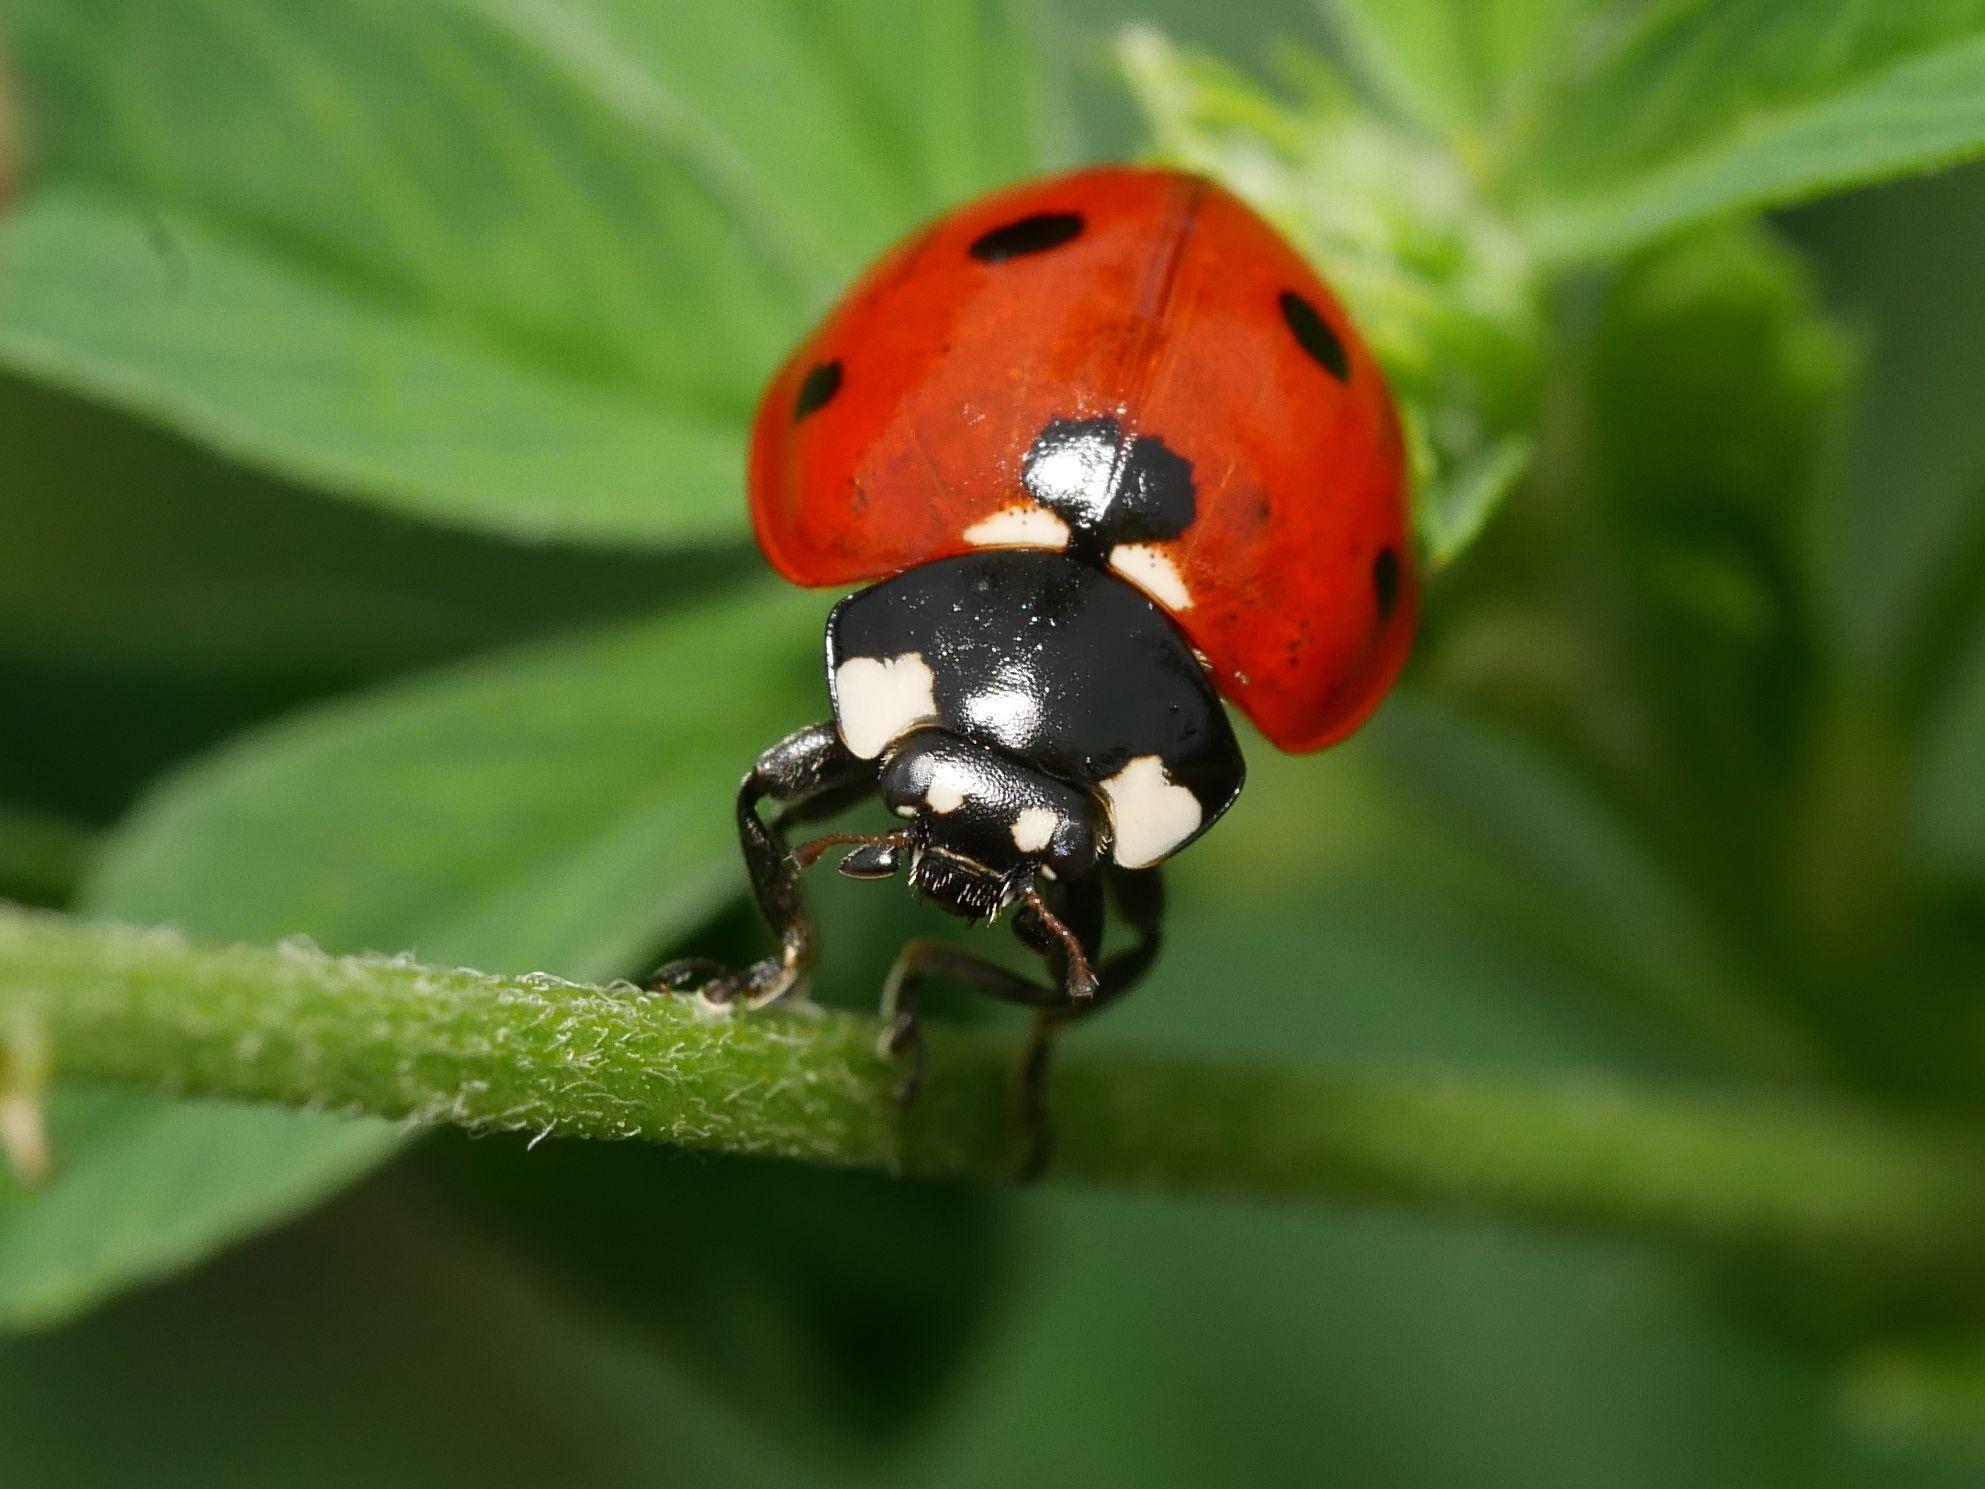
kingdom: Animalia
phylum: Arthropoda
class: Insecta
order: Coleoptera
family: Coccinellidae
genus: Coccinella
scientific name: Coccinella septempunctata
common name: Sevenspotted lady beetle
